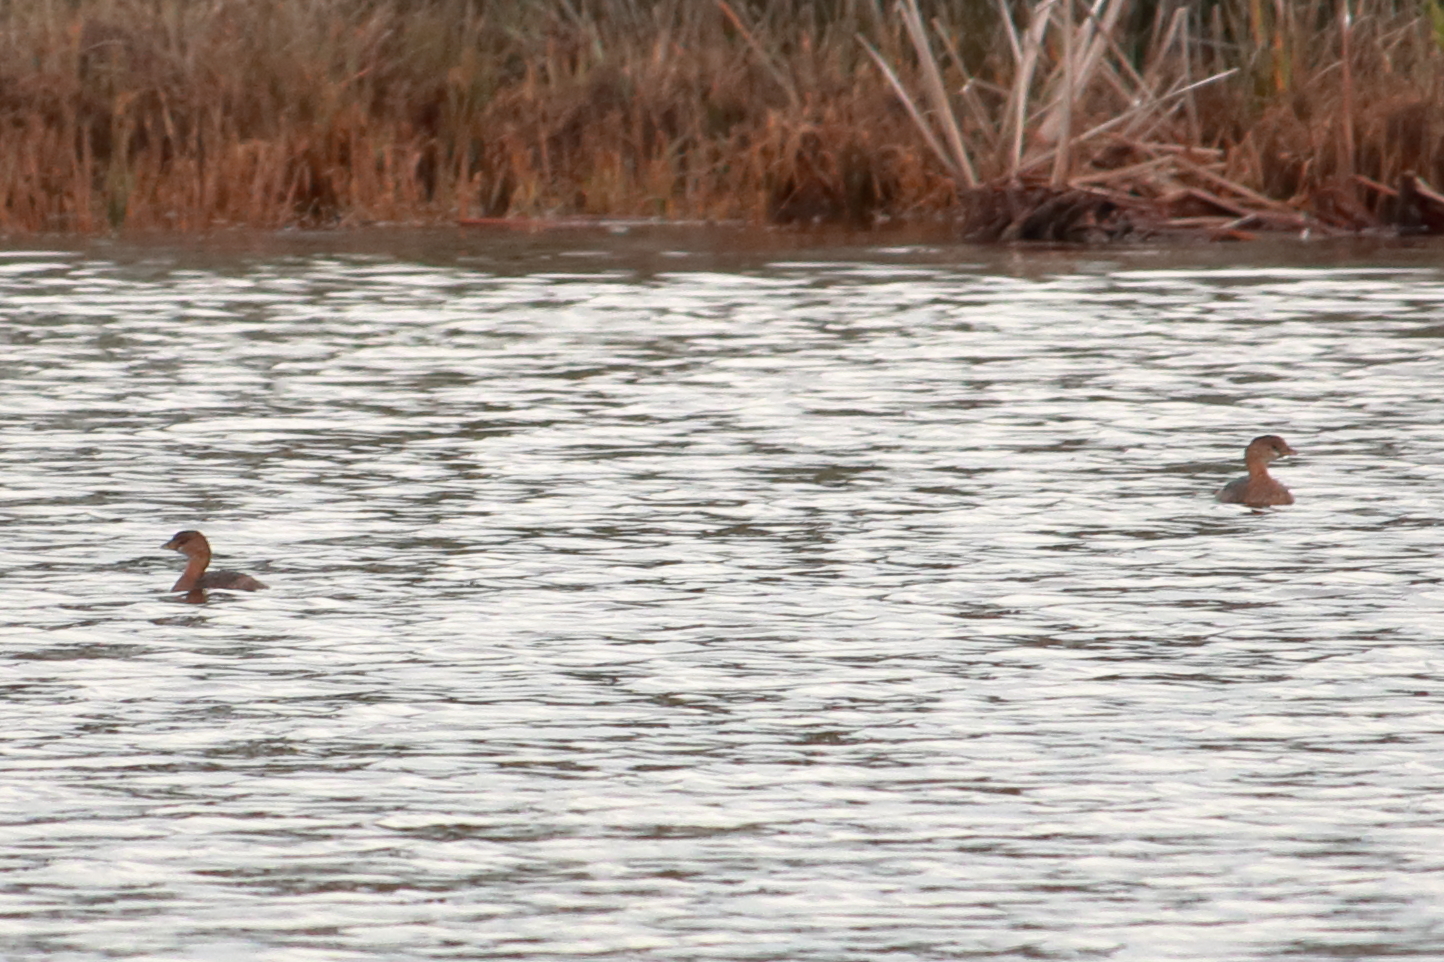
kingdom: Animalia
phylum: Chordata
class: Aves
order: Podicipediformes
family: Podicipedidae
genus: Podilymbus
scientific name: Podilymbus podiceps
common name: Pied-billed grebe
